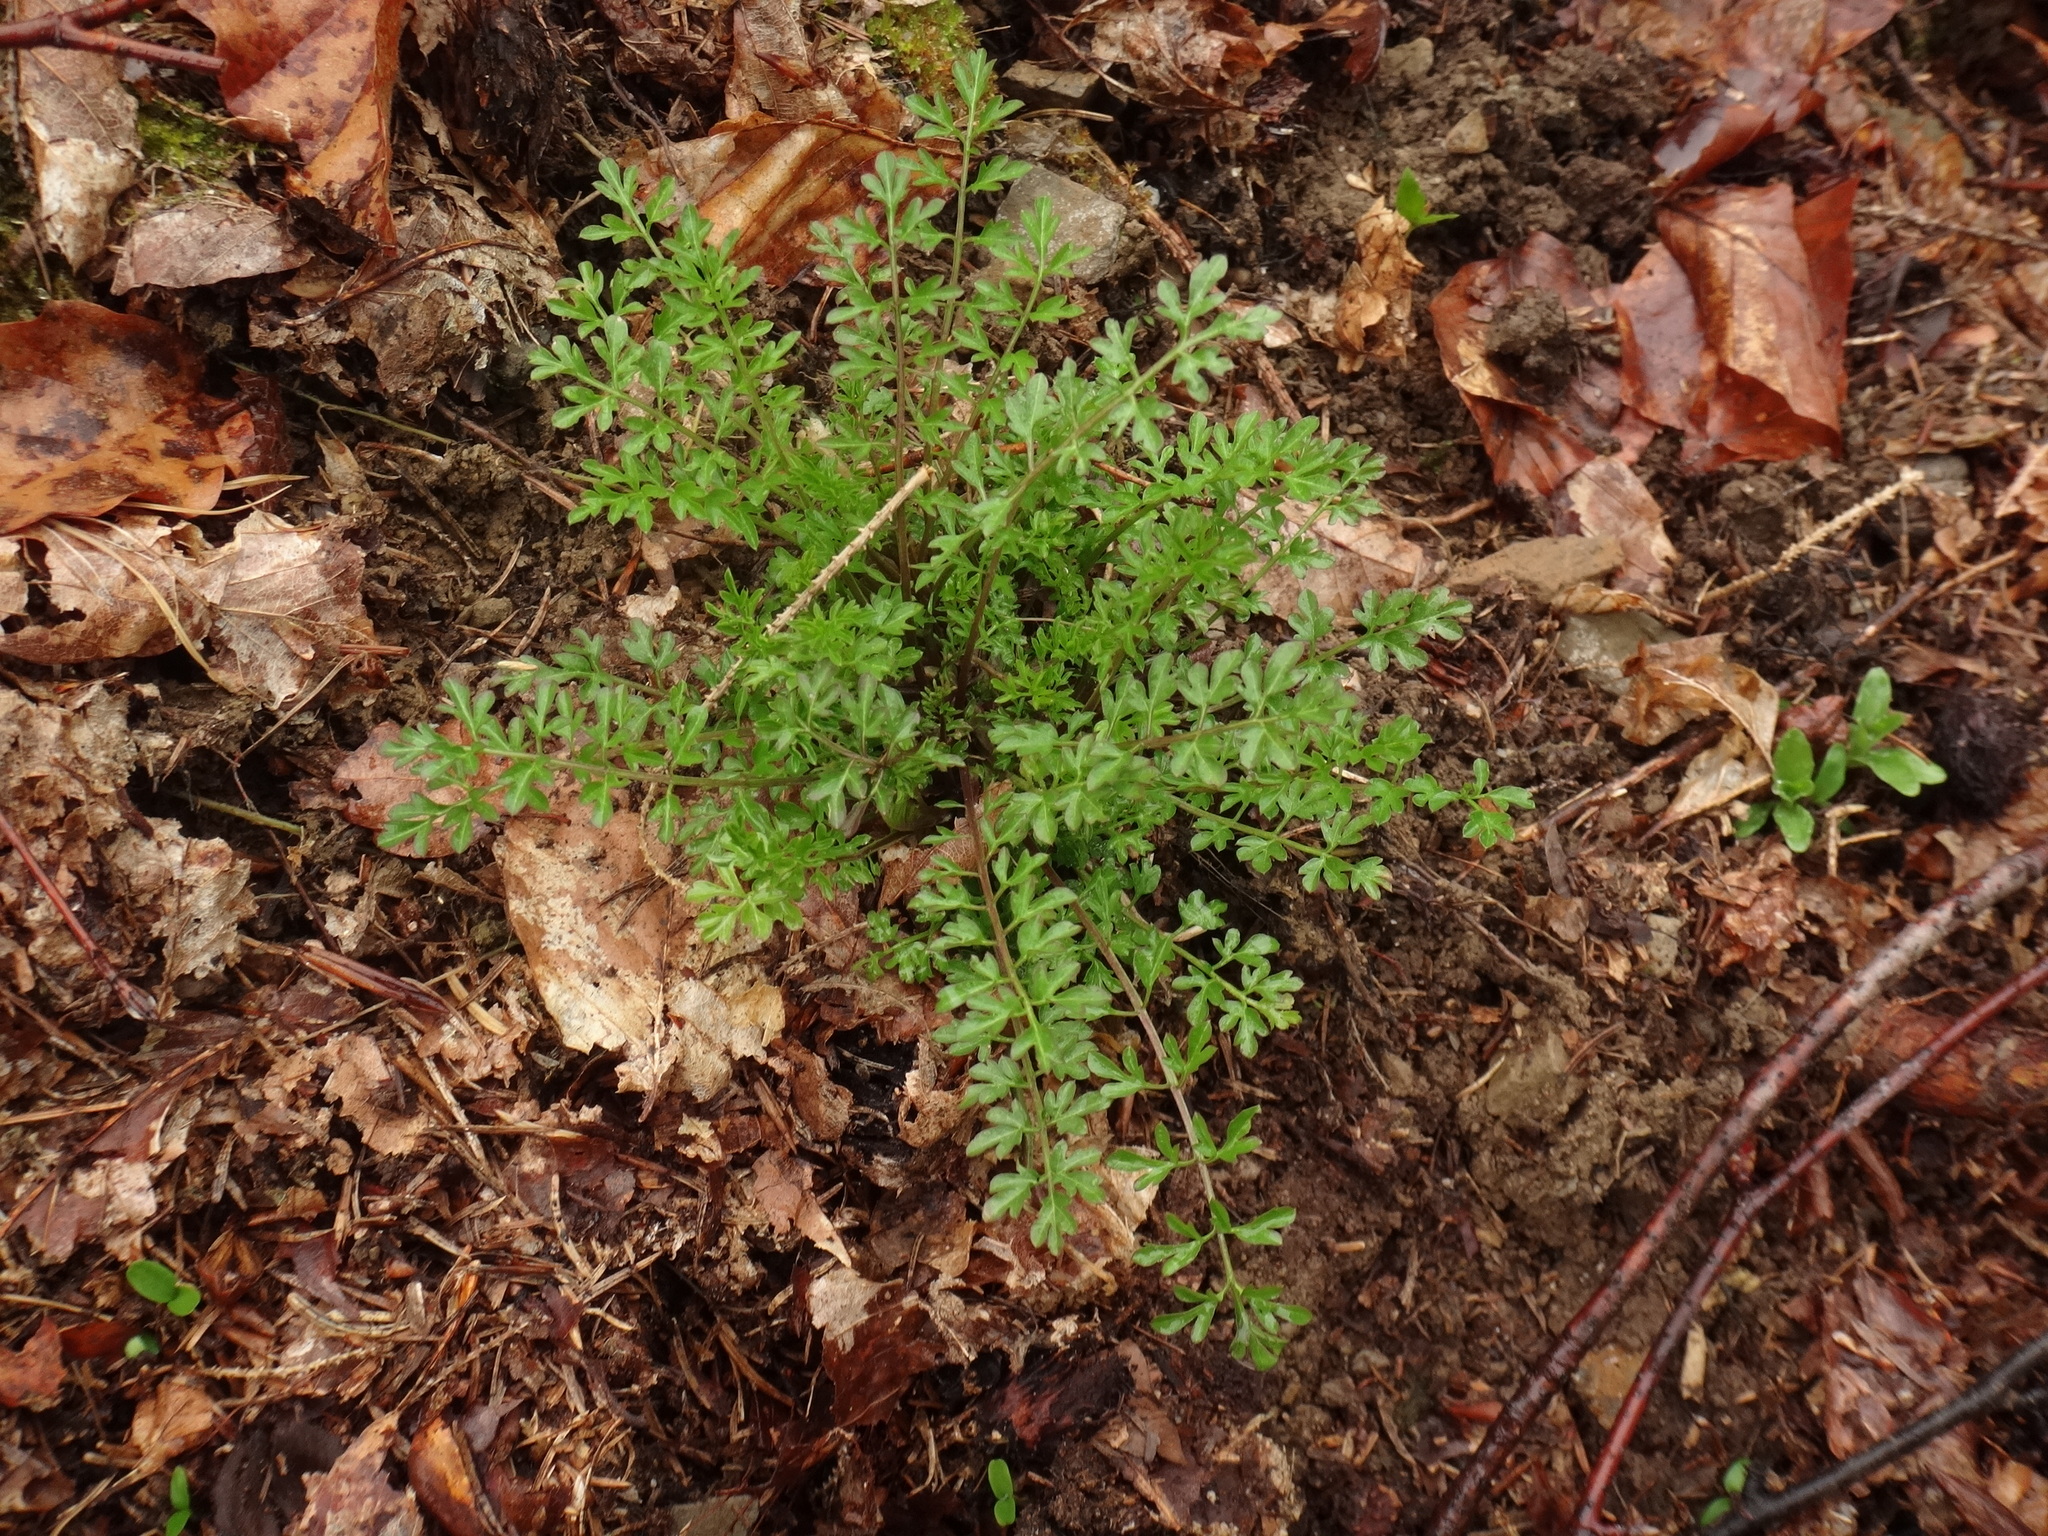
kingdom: Plantae
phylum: Tracheophyta
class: Magnoliopsida
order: Brassicales
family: Brassicaceae
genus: Cardamine
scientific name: Cardamine impatiens
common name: Narrow-leaved bitter-cress
